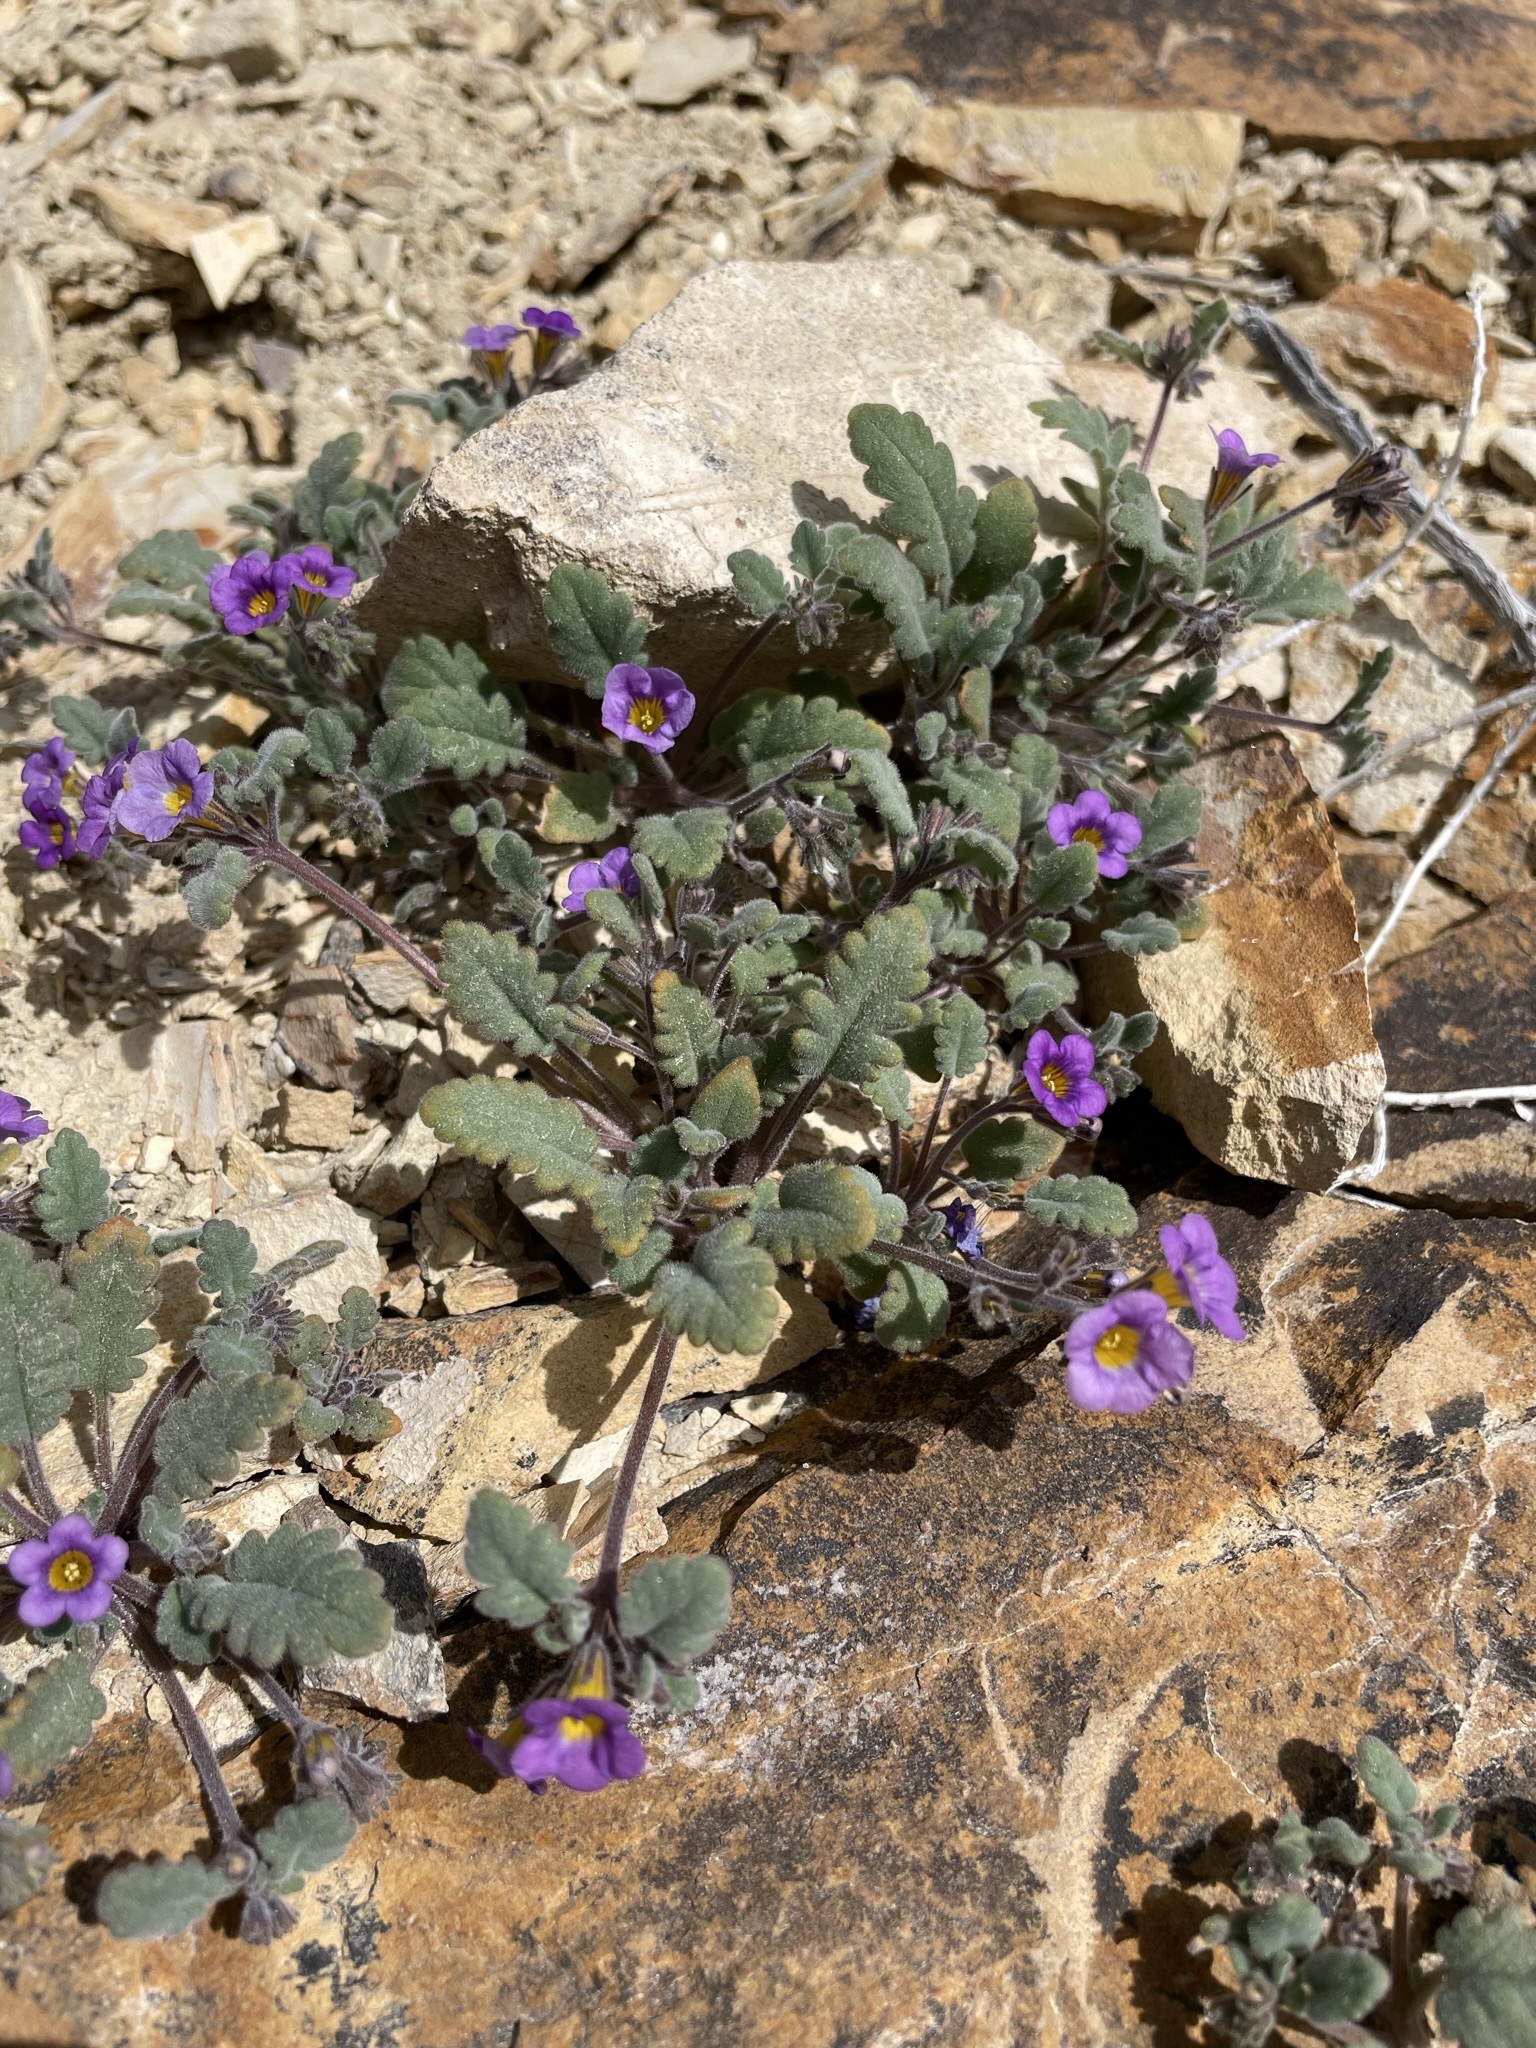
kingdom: Plantae
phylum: Tracheophyta
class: Magnoliopsida
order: Boraginales
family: Hydrophyllaceae
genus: Phacelia
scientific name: Phacelia gymnoclada
